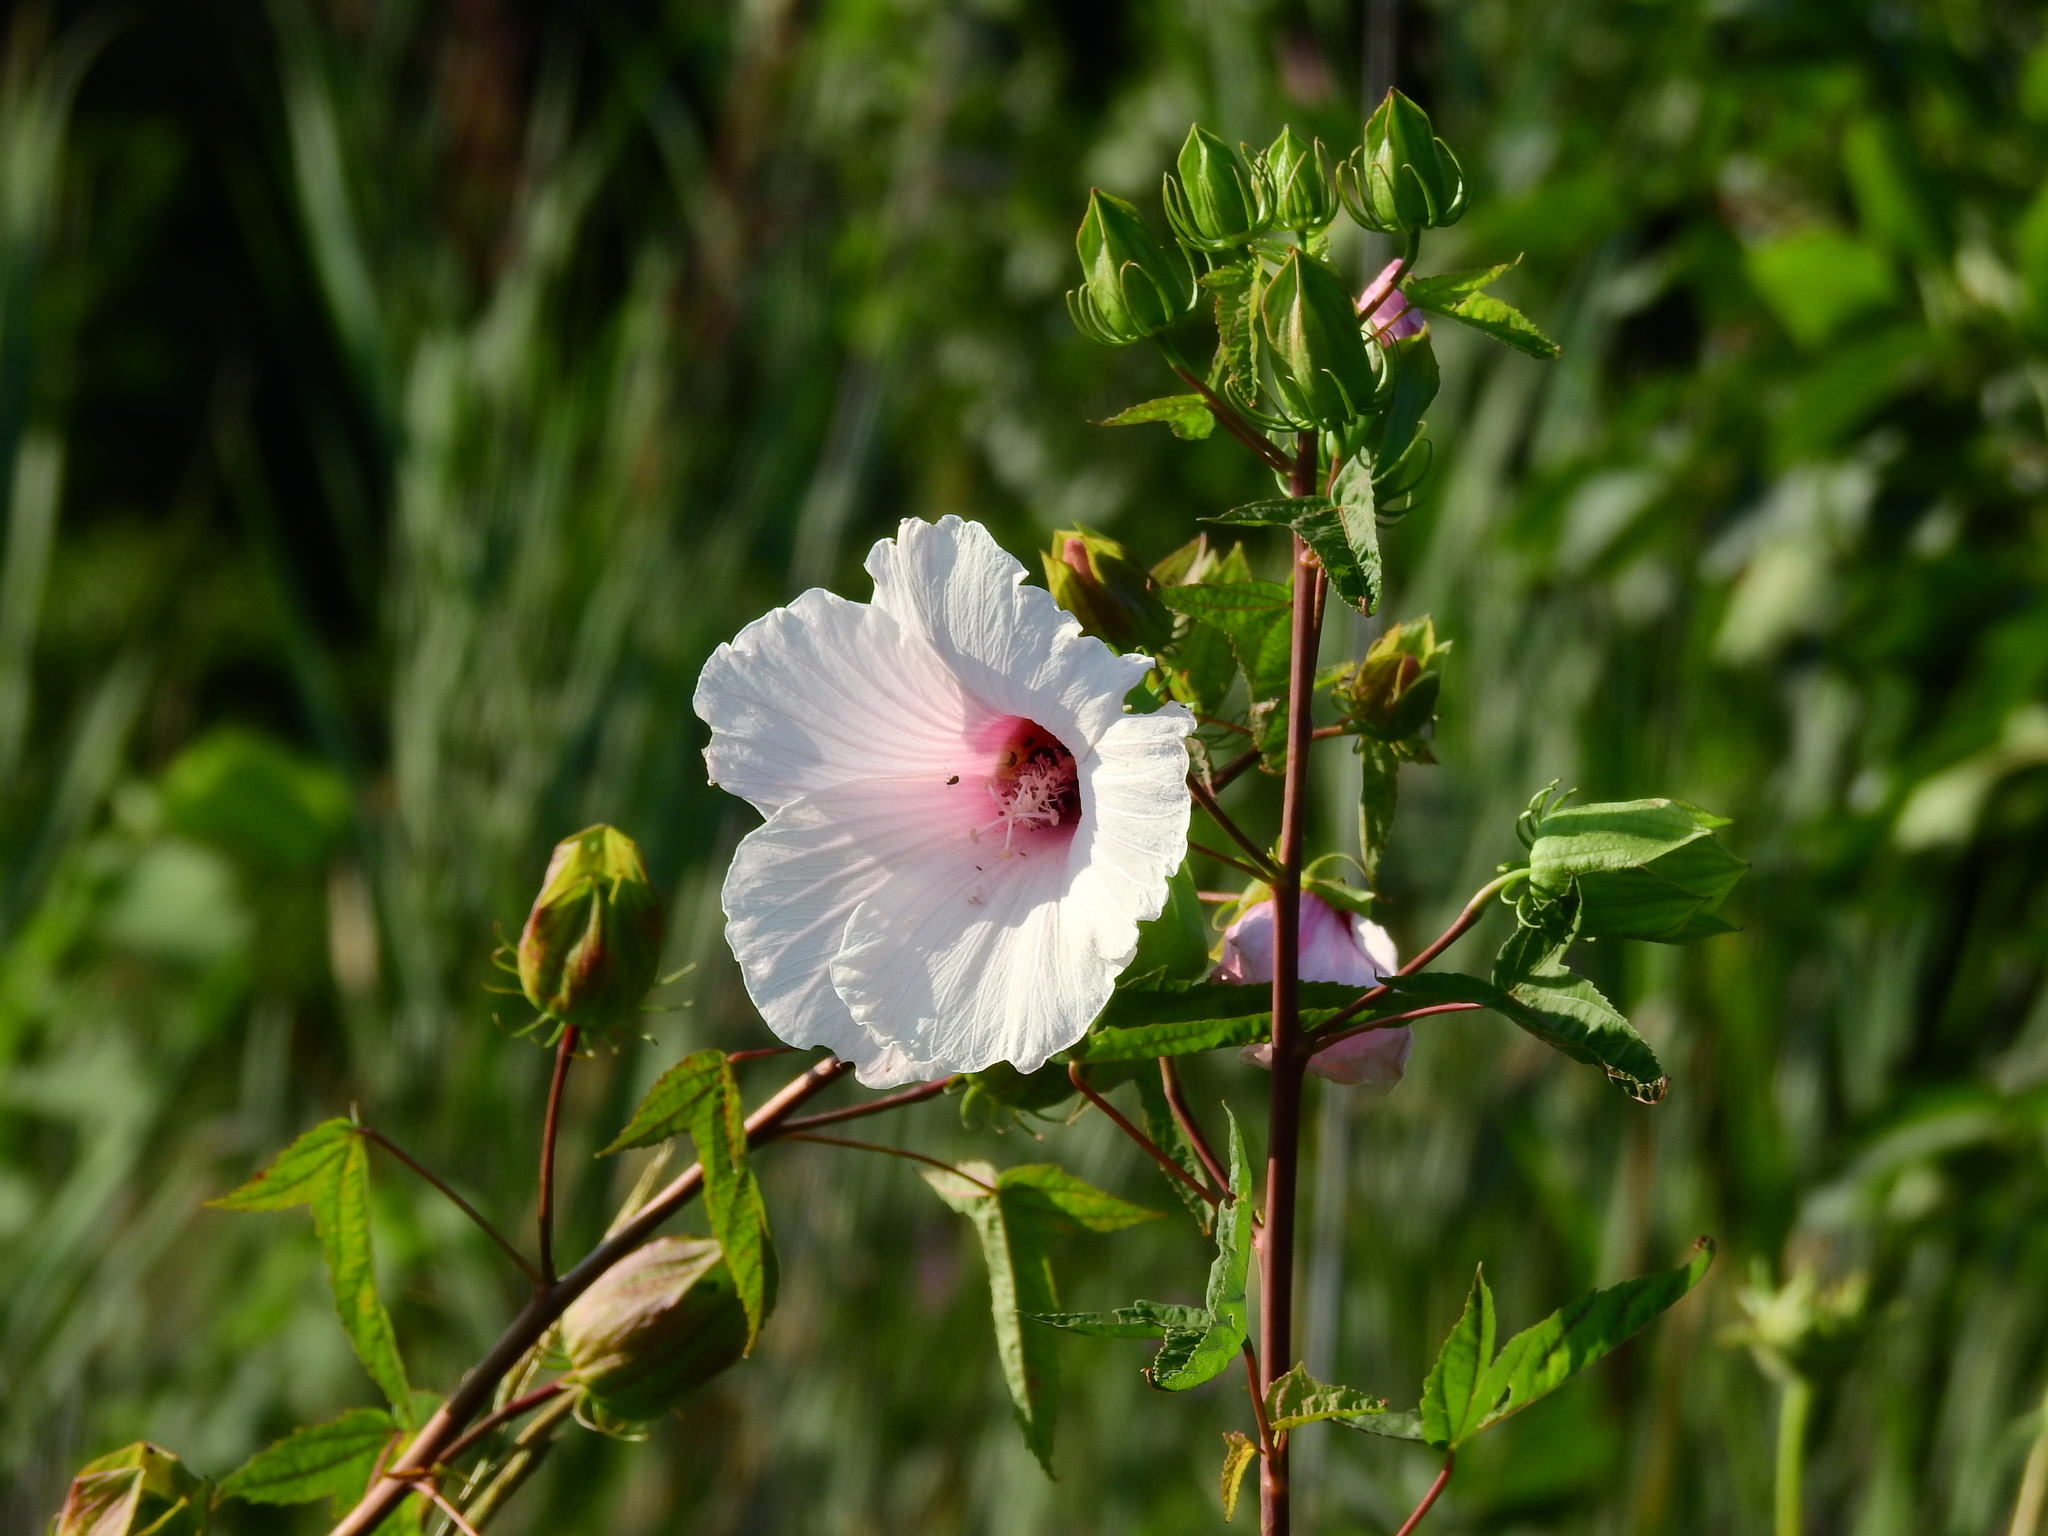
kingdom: Plantae
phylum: Tracheophyta
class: Magnoliopsida
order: Malvales
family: Malvaceae
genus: Hibiscus
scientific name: Hibiscus laevis
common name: Scarlet rose-mallow
